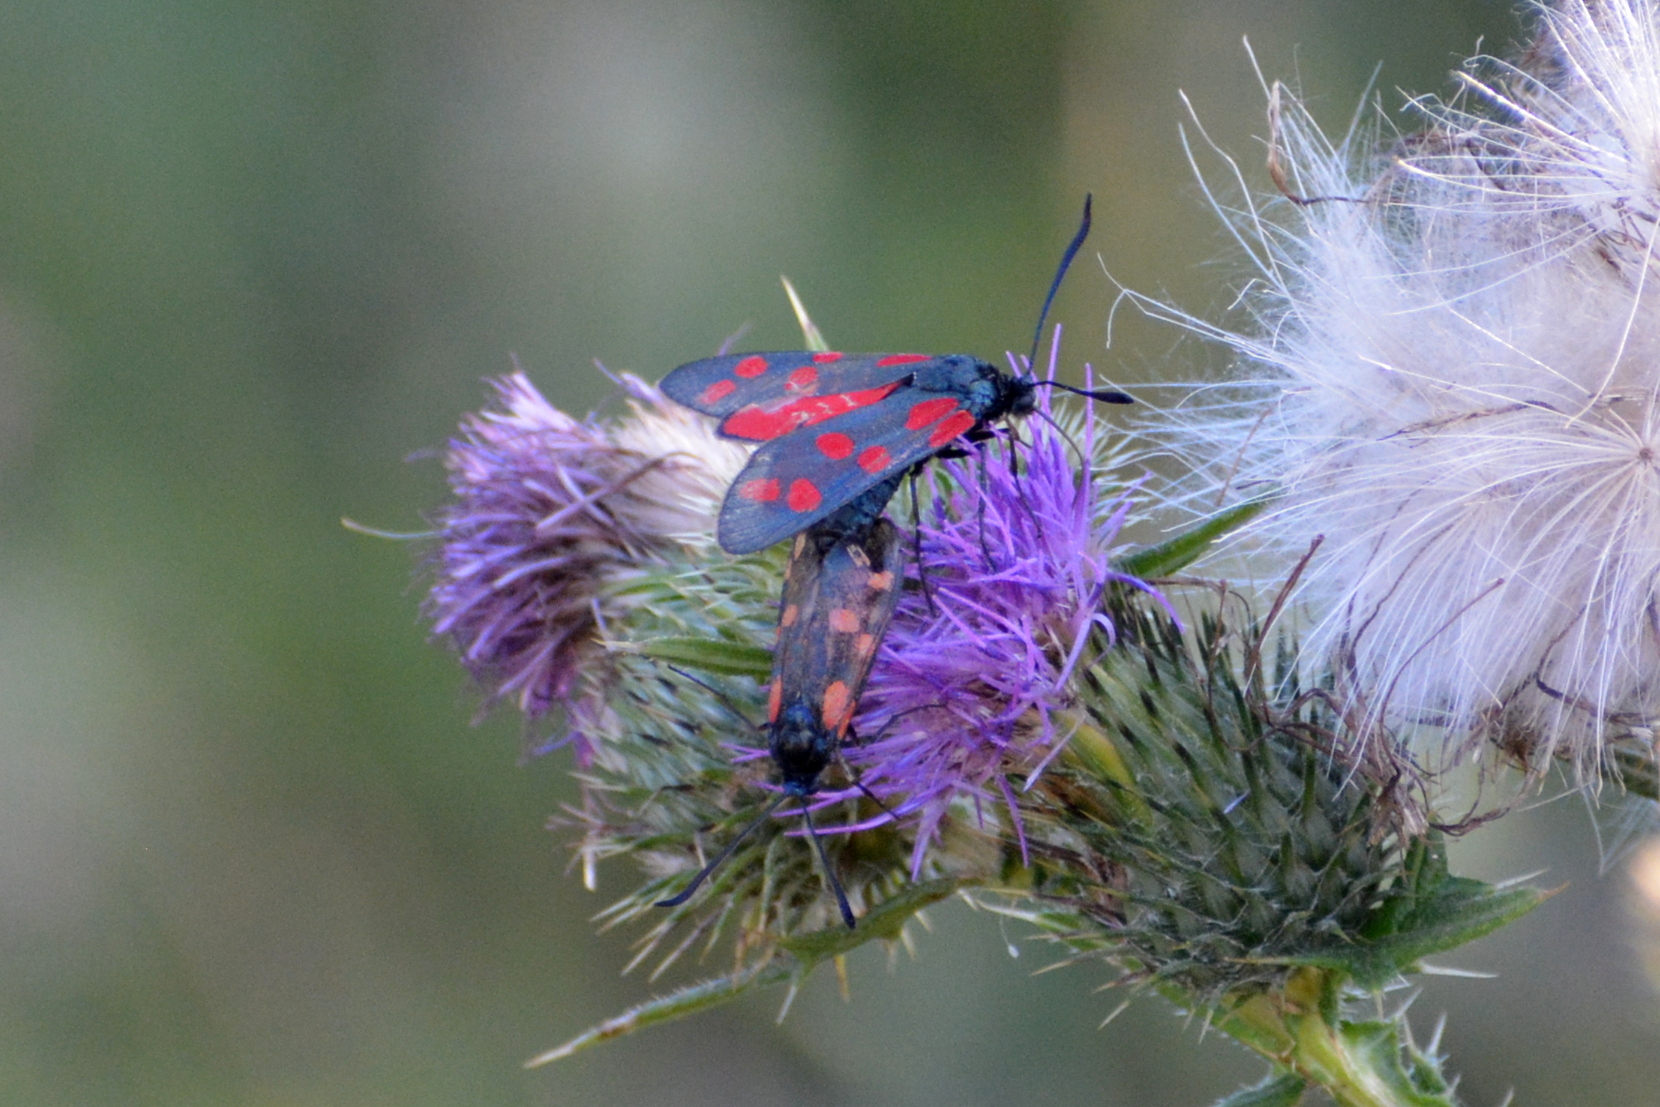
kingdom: Animalia
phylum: Arthropoda
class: Insecta
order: Lepidoptera
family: Zygaenidae
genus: Zygaena
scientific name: Zygaena filipendulae
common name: Six-spot burnet
